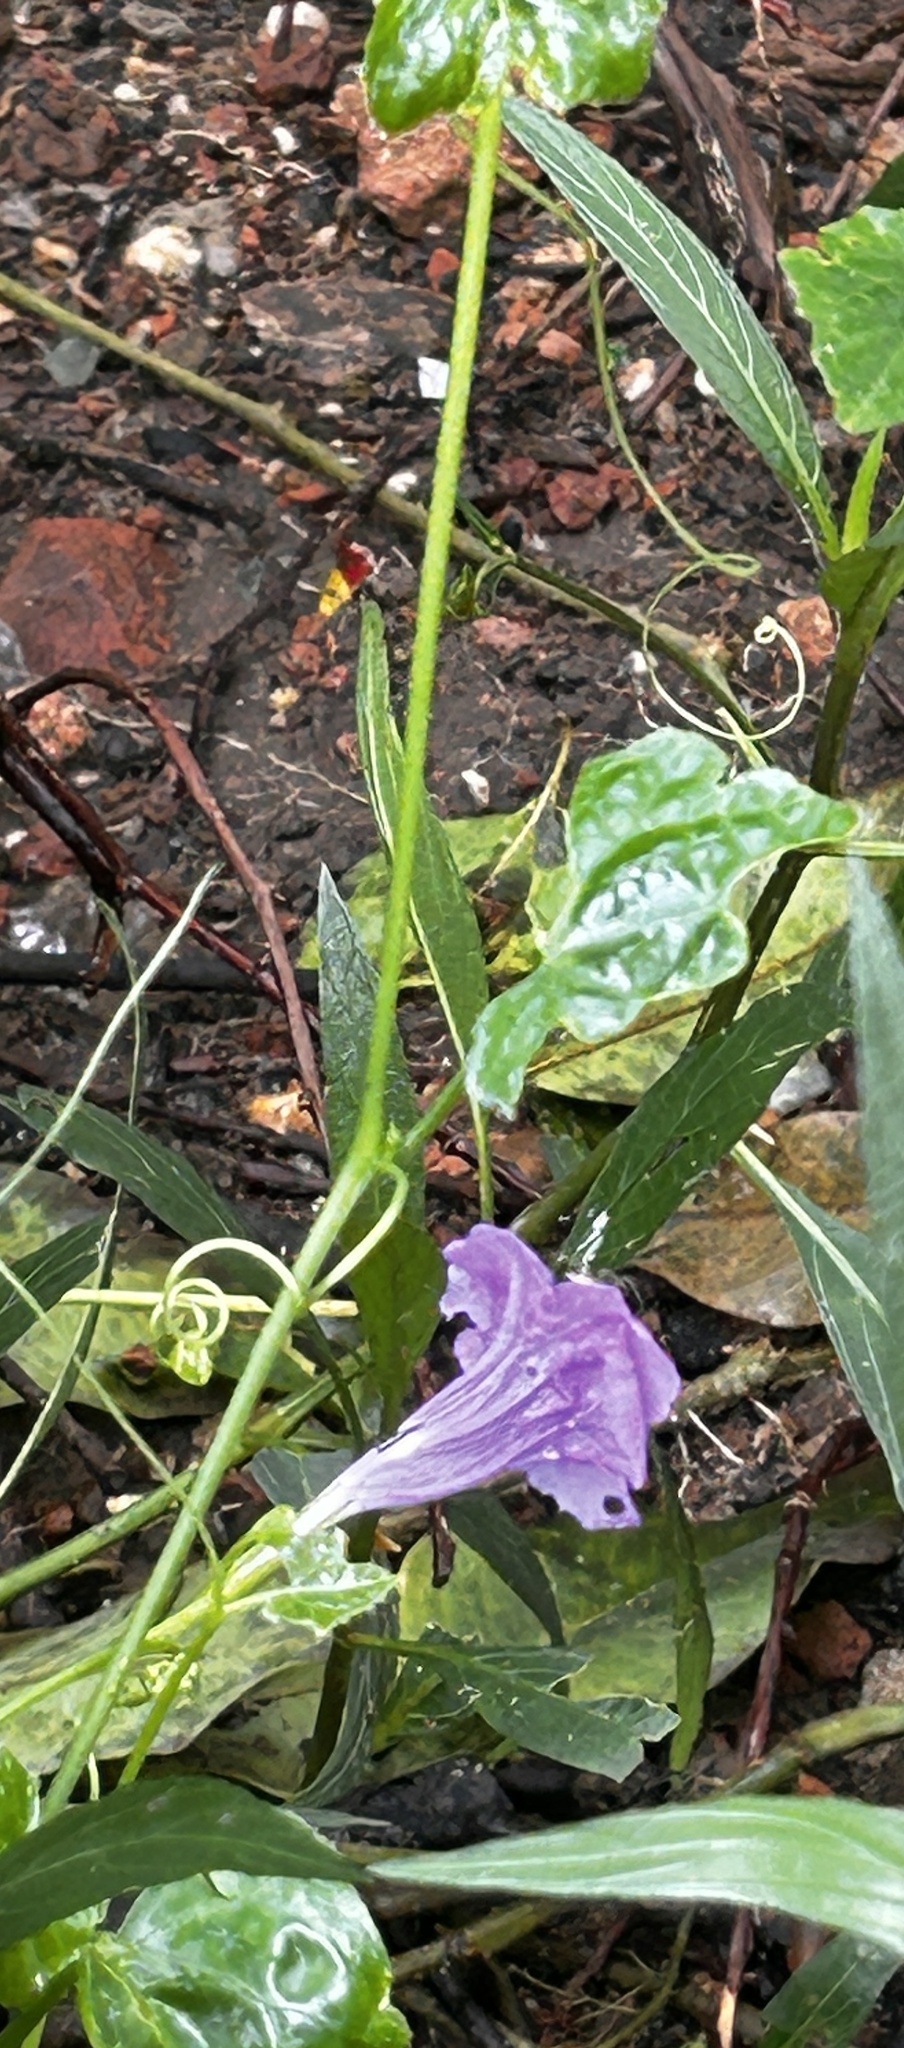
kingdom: Plantae
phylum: Tracheophyta
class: Magnoliopsida
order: Lamiales
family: Acanthaceae
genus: Ruellia
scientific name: Ruellia simplex
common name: Softseed wild petunia
